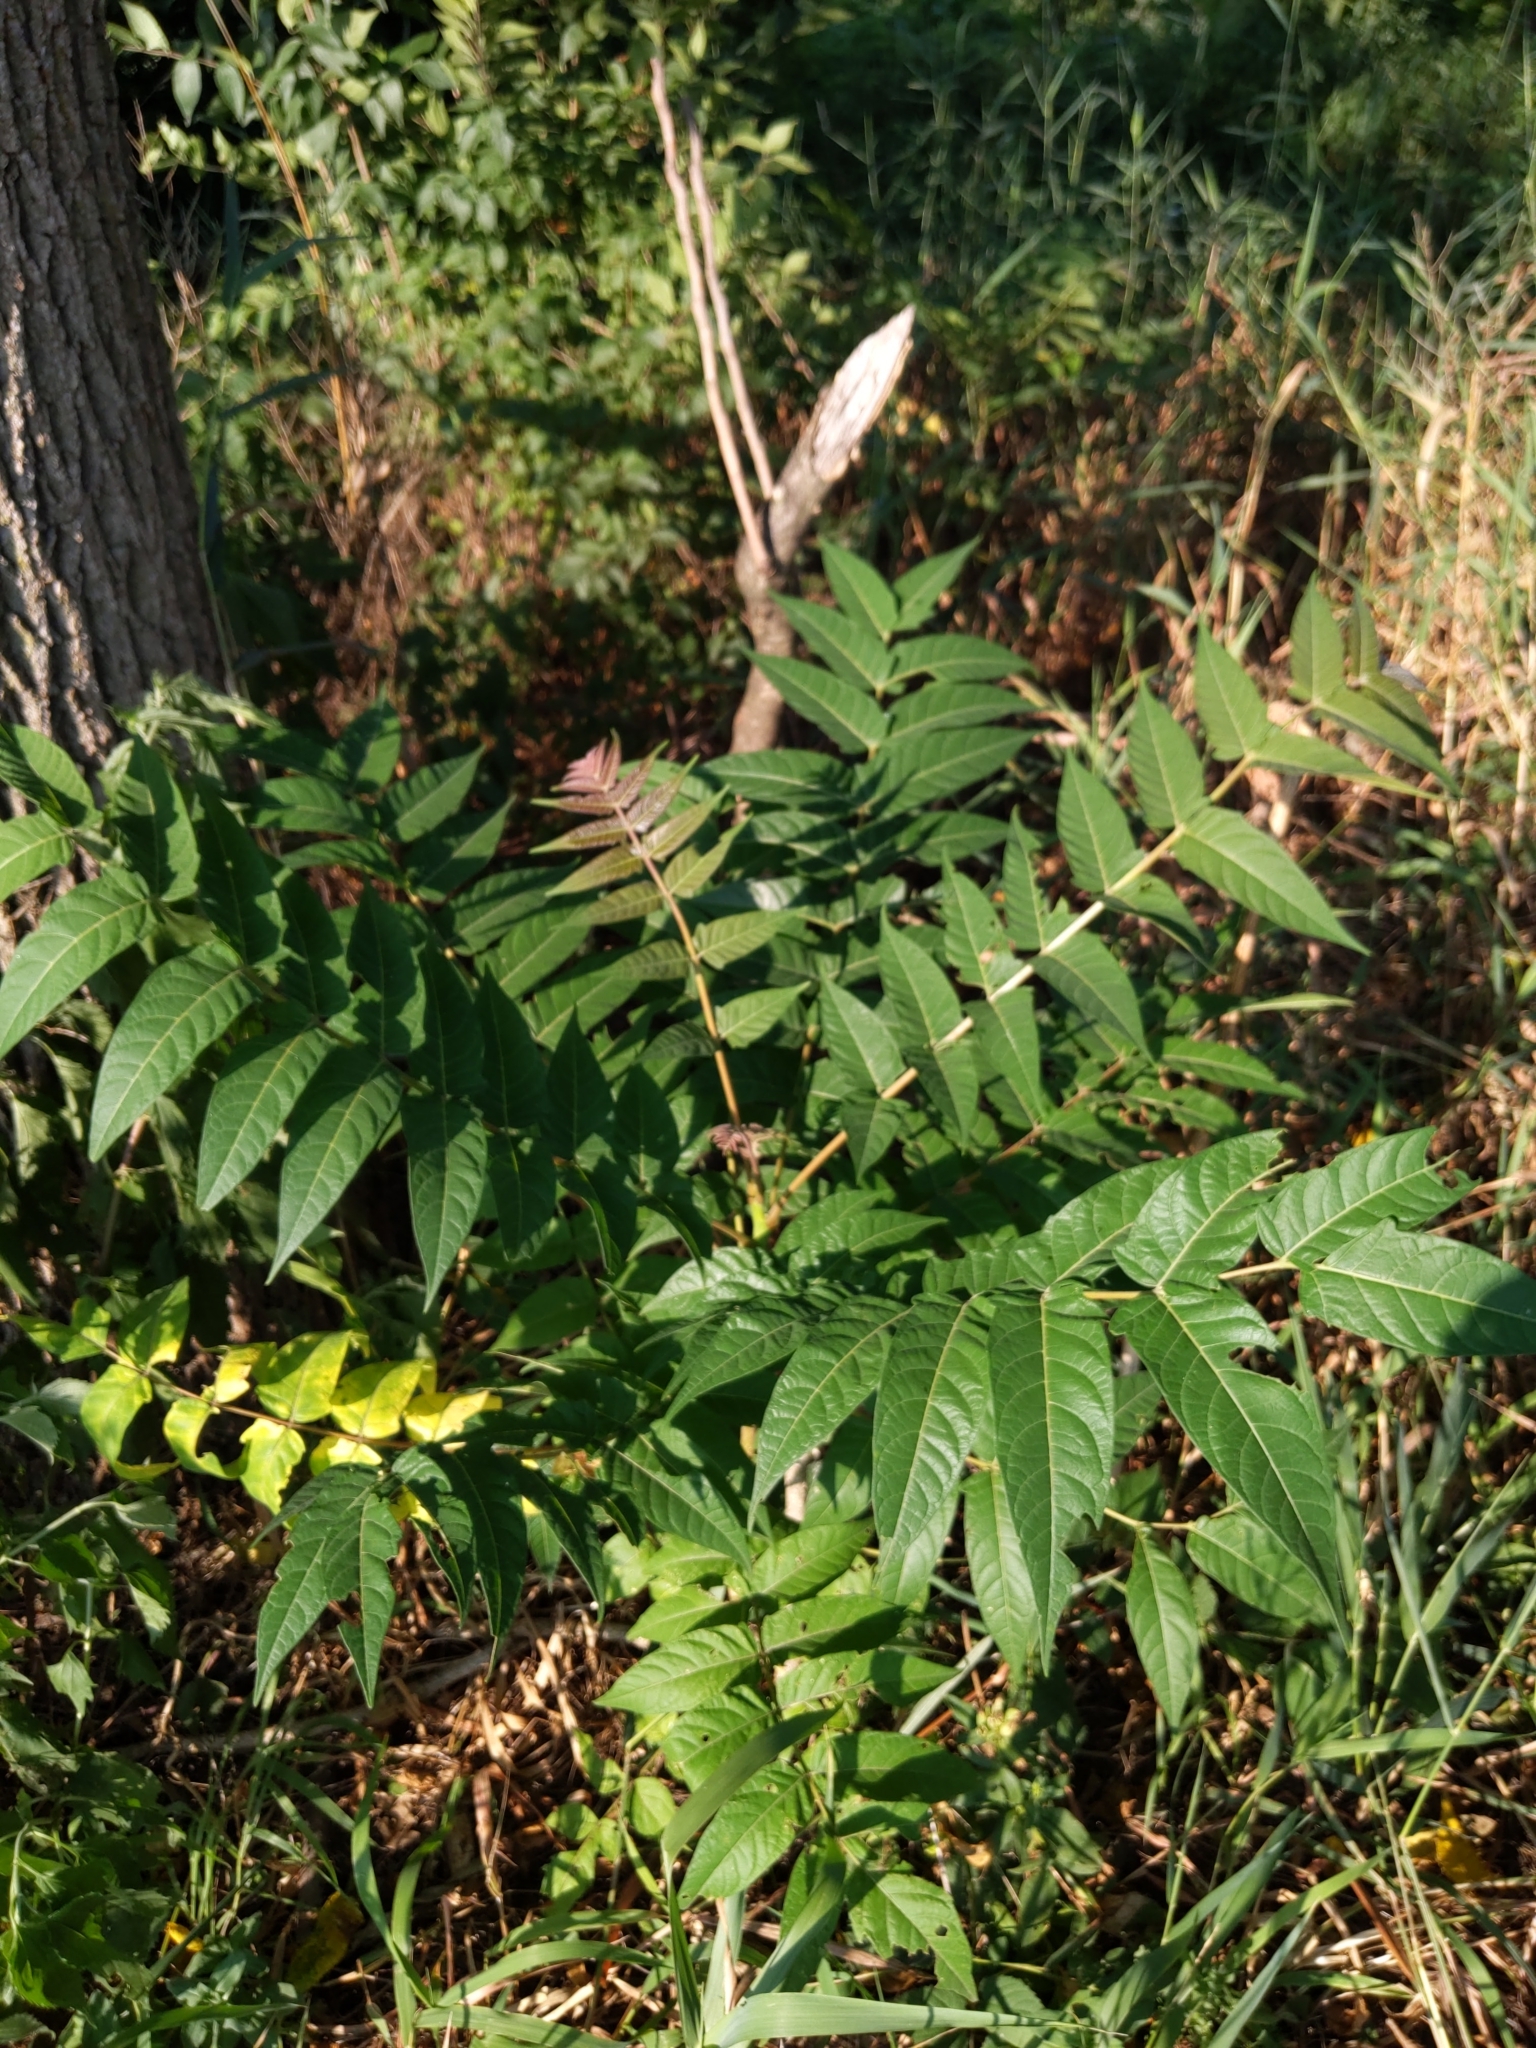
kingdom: Plantae
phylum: Tracheophyta
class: Magnoliopsida
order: Sapindales
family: Simaroubaceae
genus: Ailanthus
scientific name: Ailanthus altissima
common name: Tree-of-heaven
